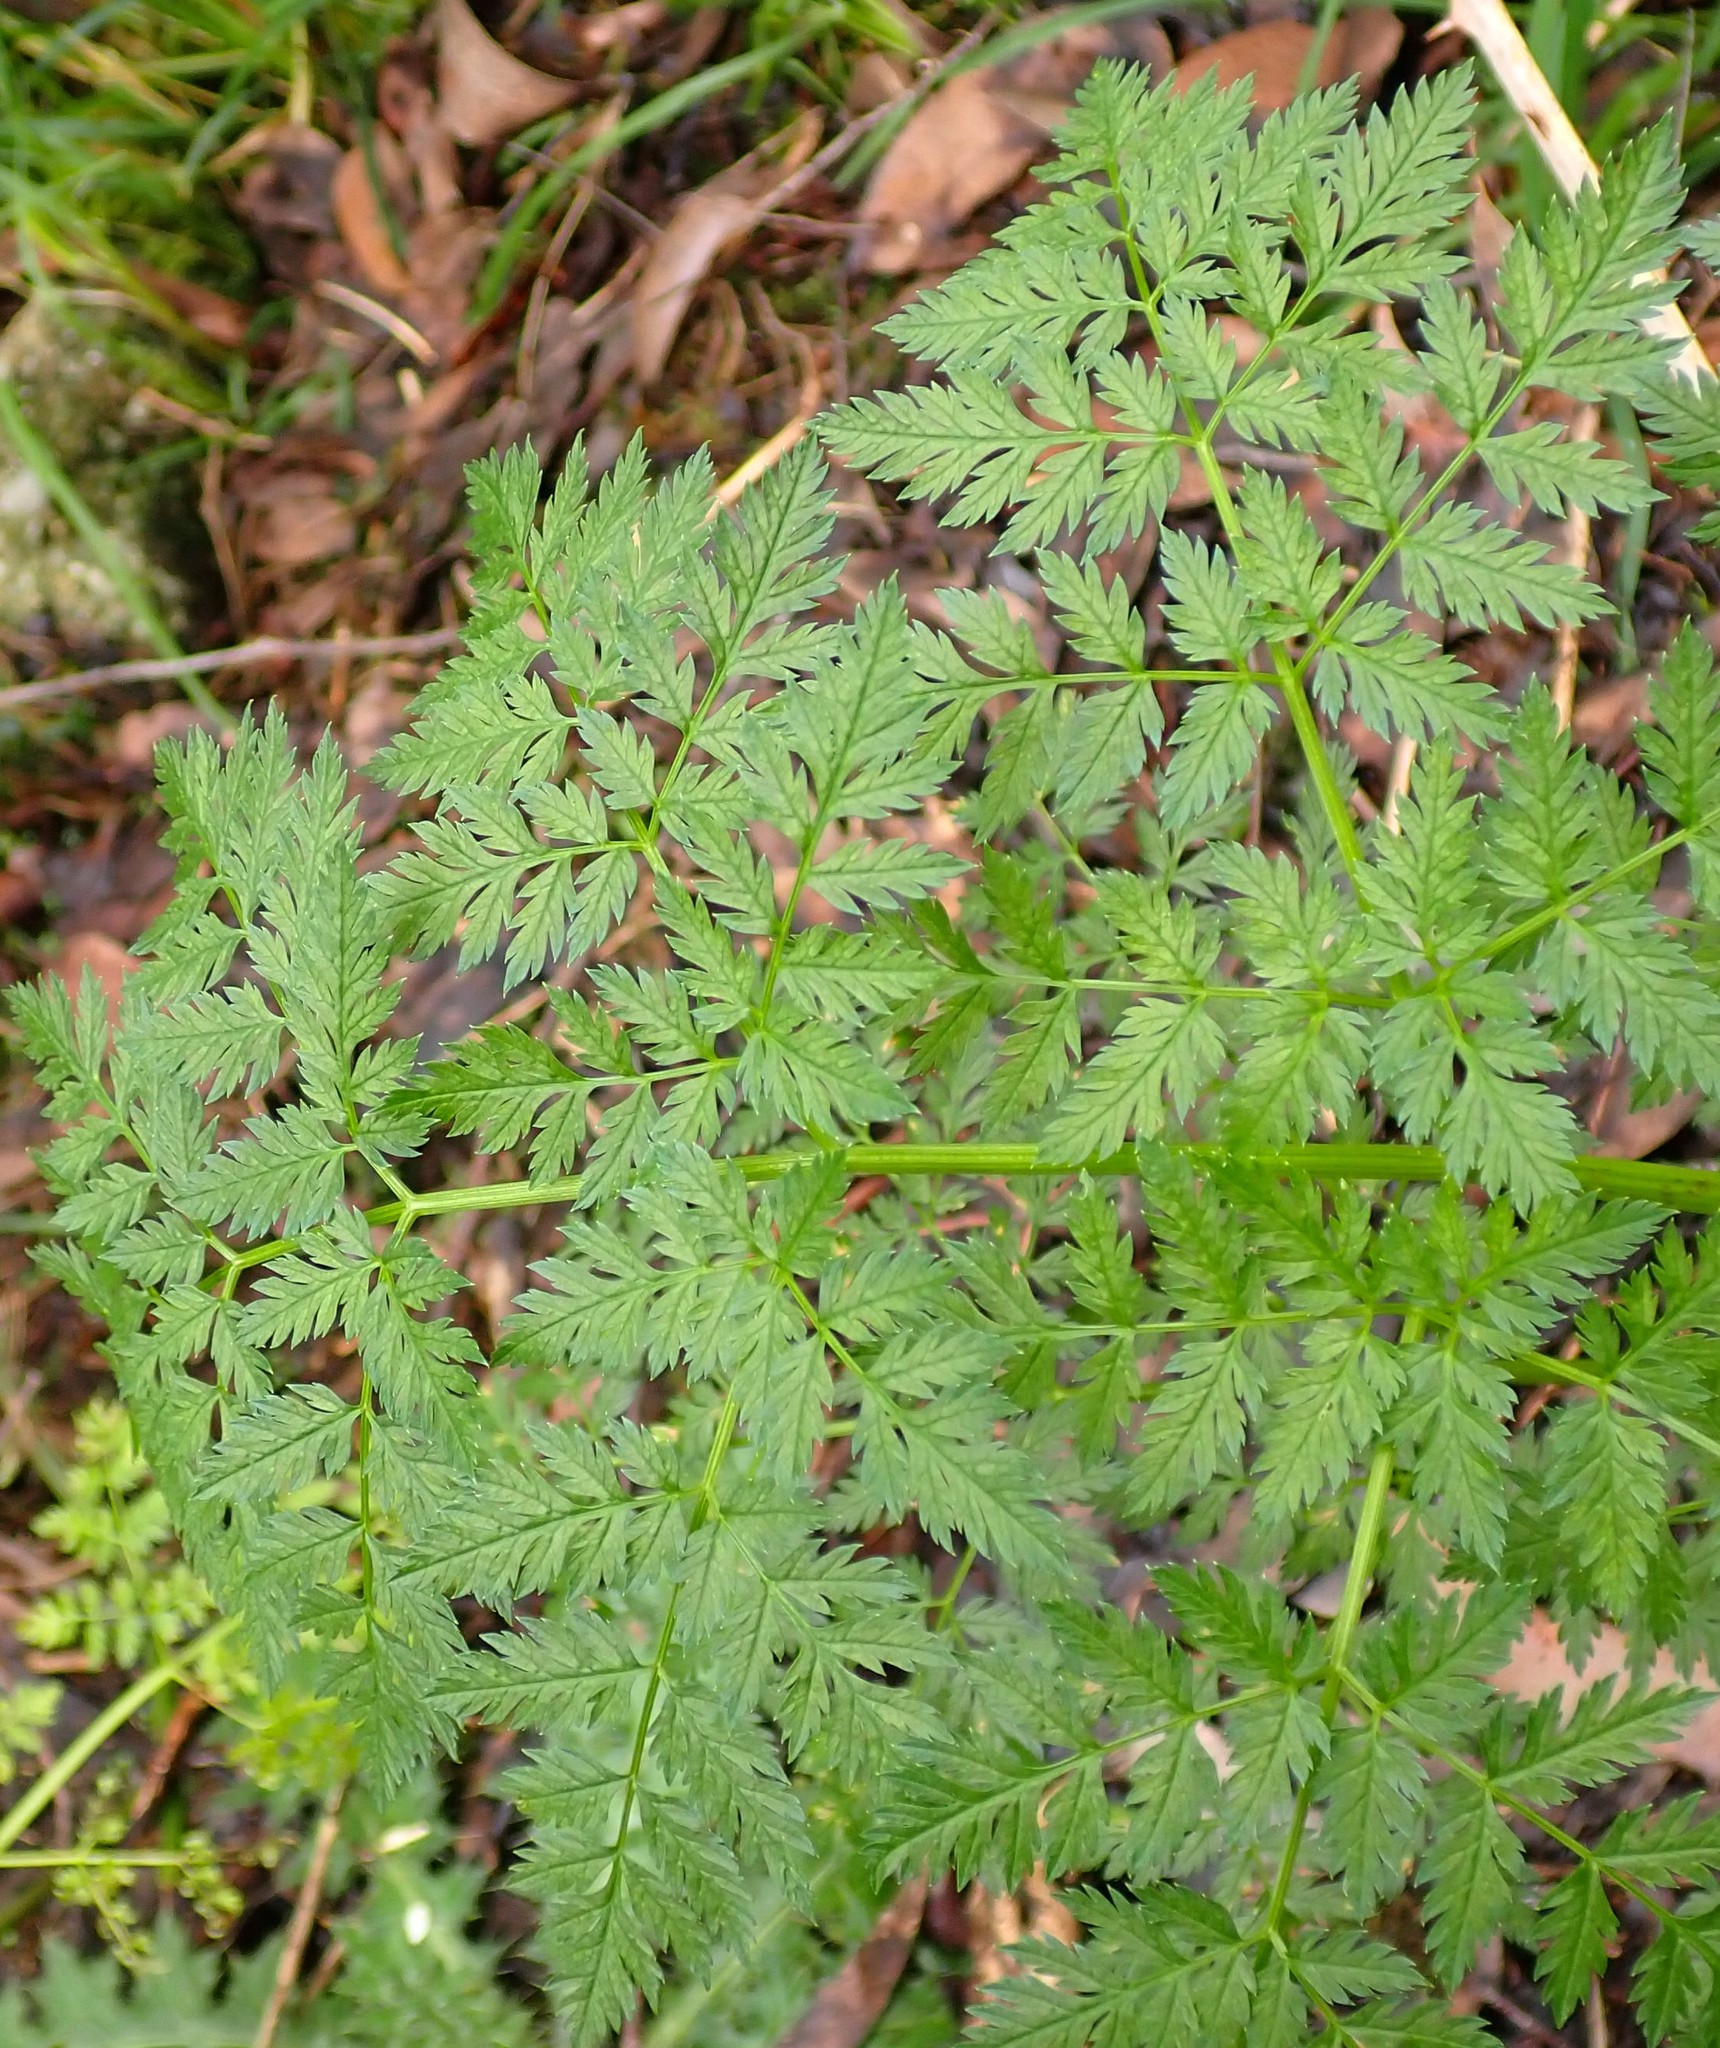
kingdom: Plantae
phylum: Tracheophyta
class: Magnoliopsida
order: Apiales
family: Apiaceae
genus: Conium
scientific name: Conium maculatum
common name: Hemlock
